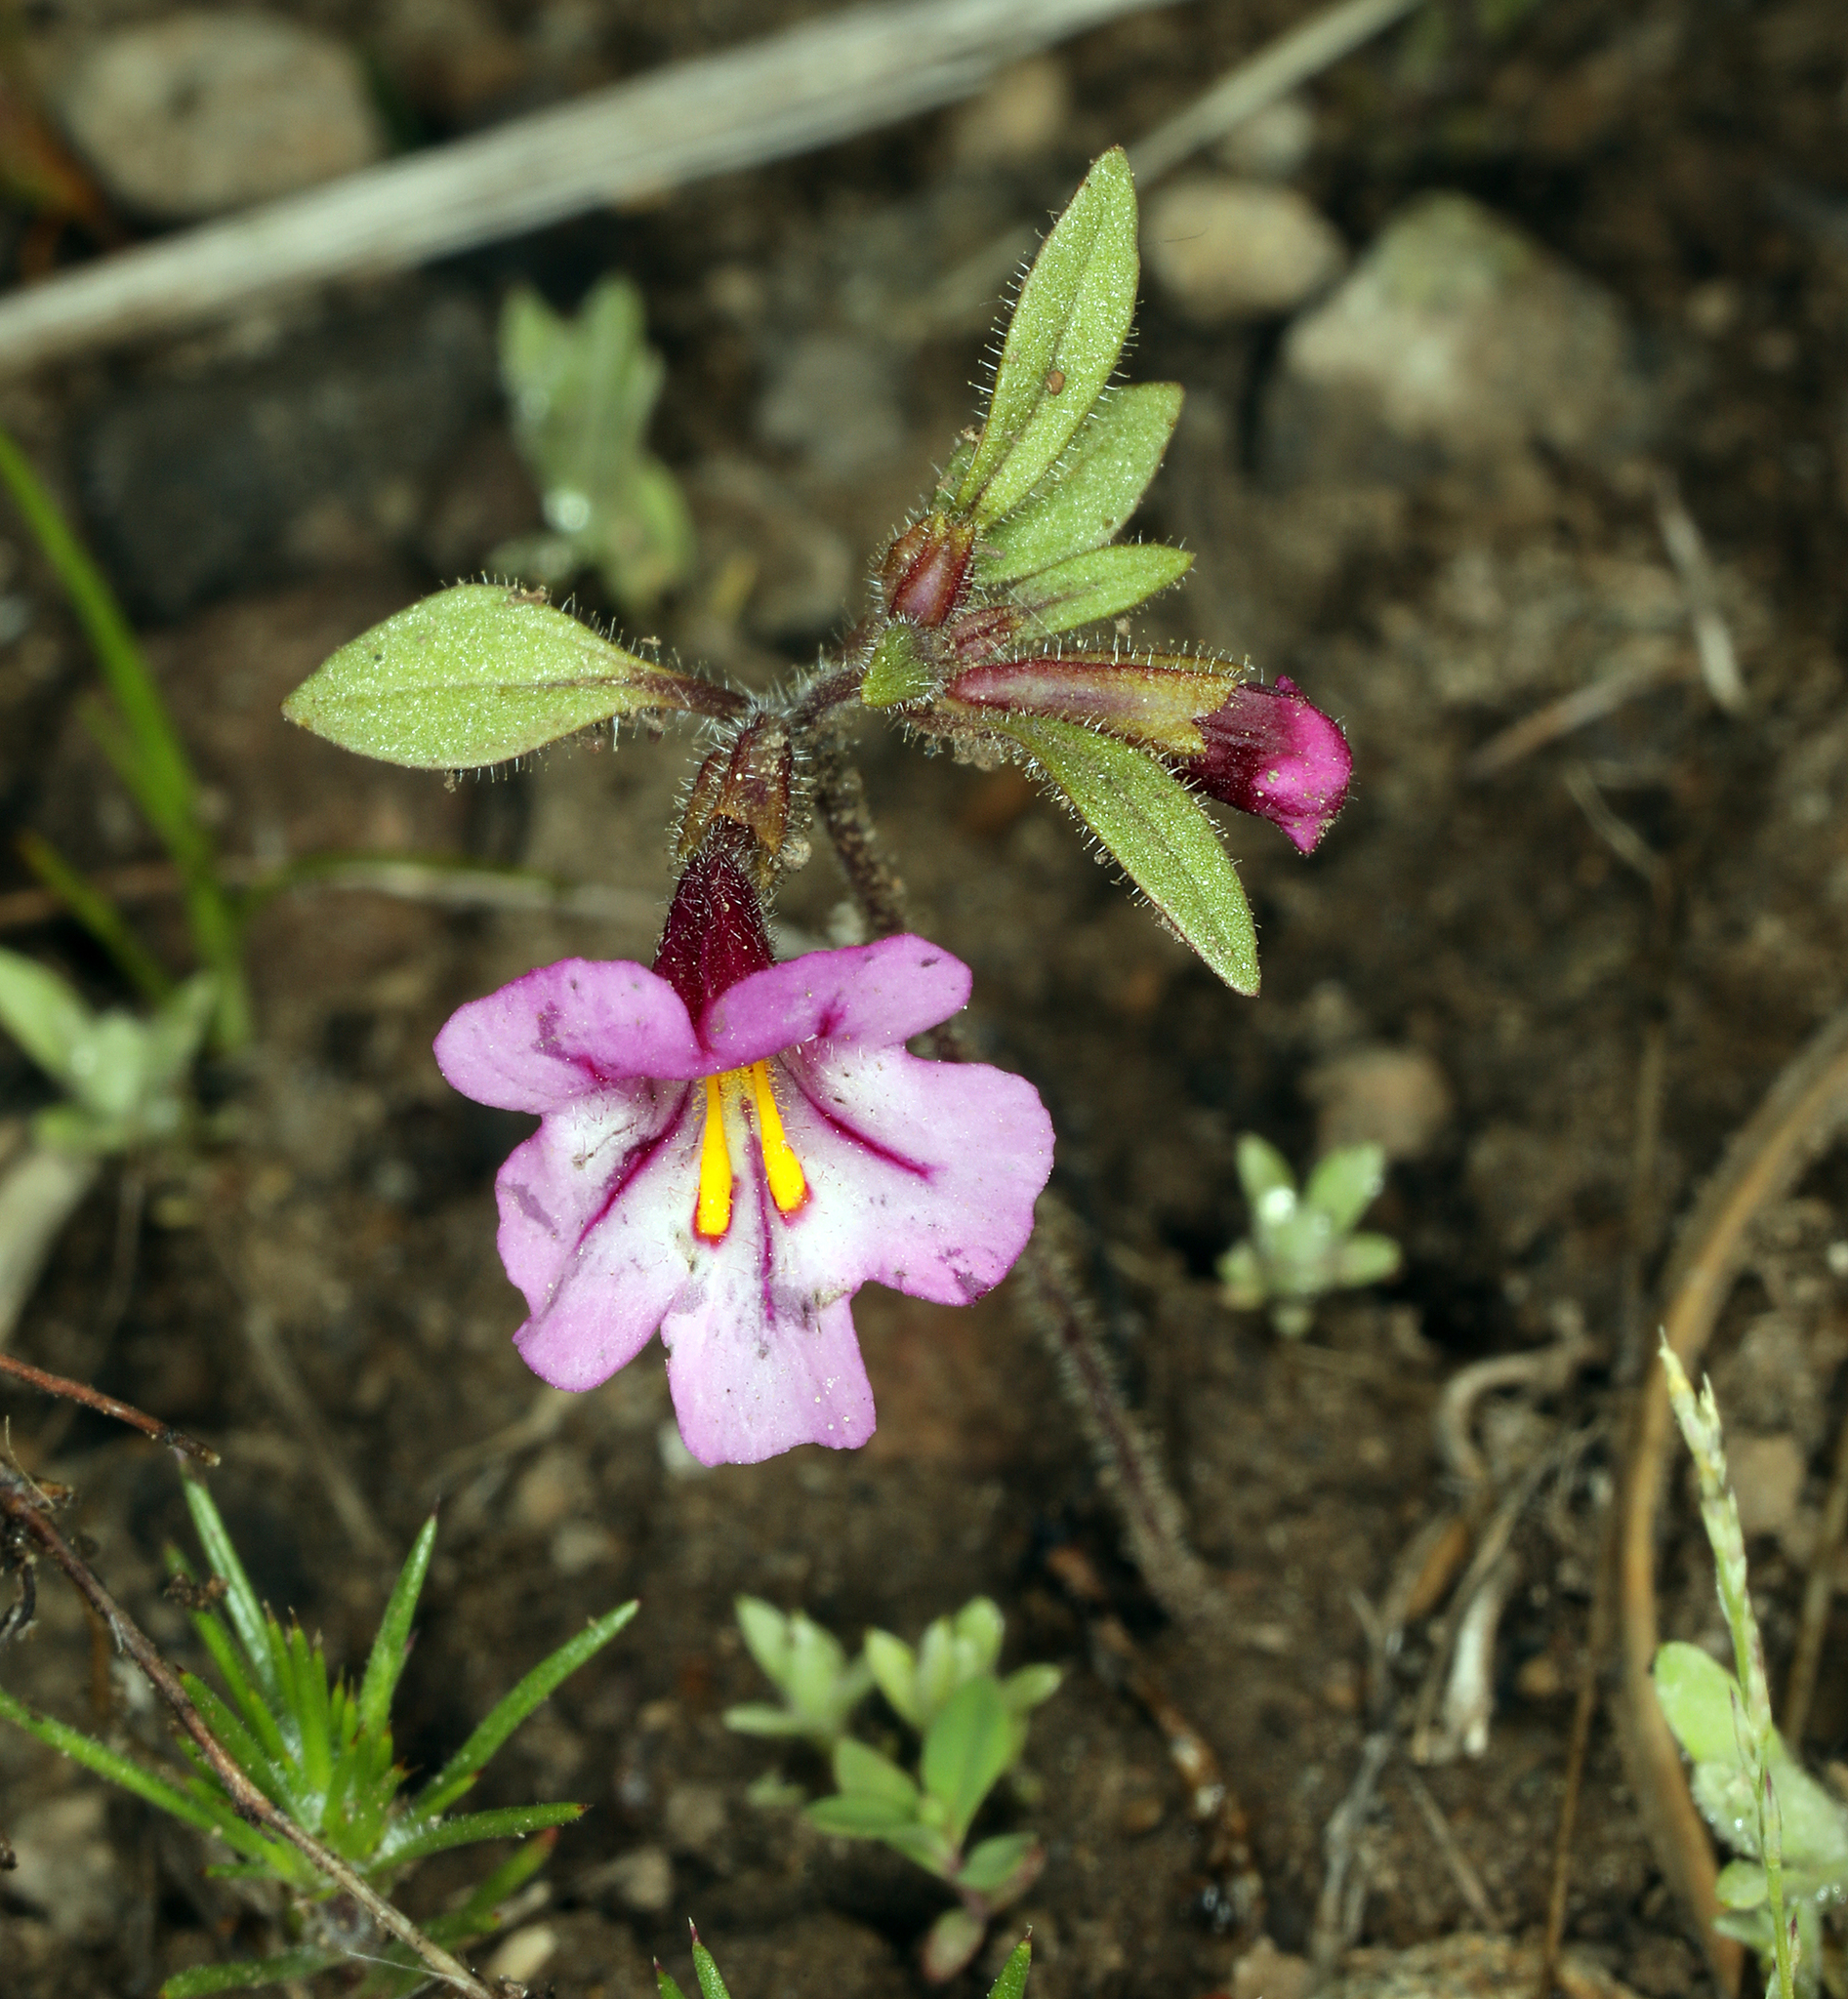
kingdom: Plantae
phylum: Tracheophyta
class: Magnoliopsida
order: Lamiales
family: Phrymaceae
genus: Diplacus
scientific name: Diplacus torreyi
